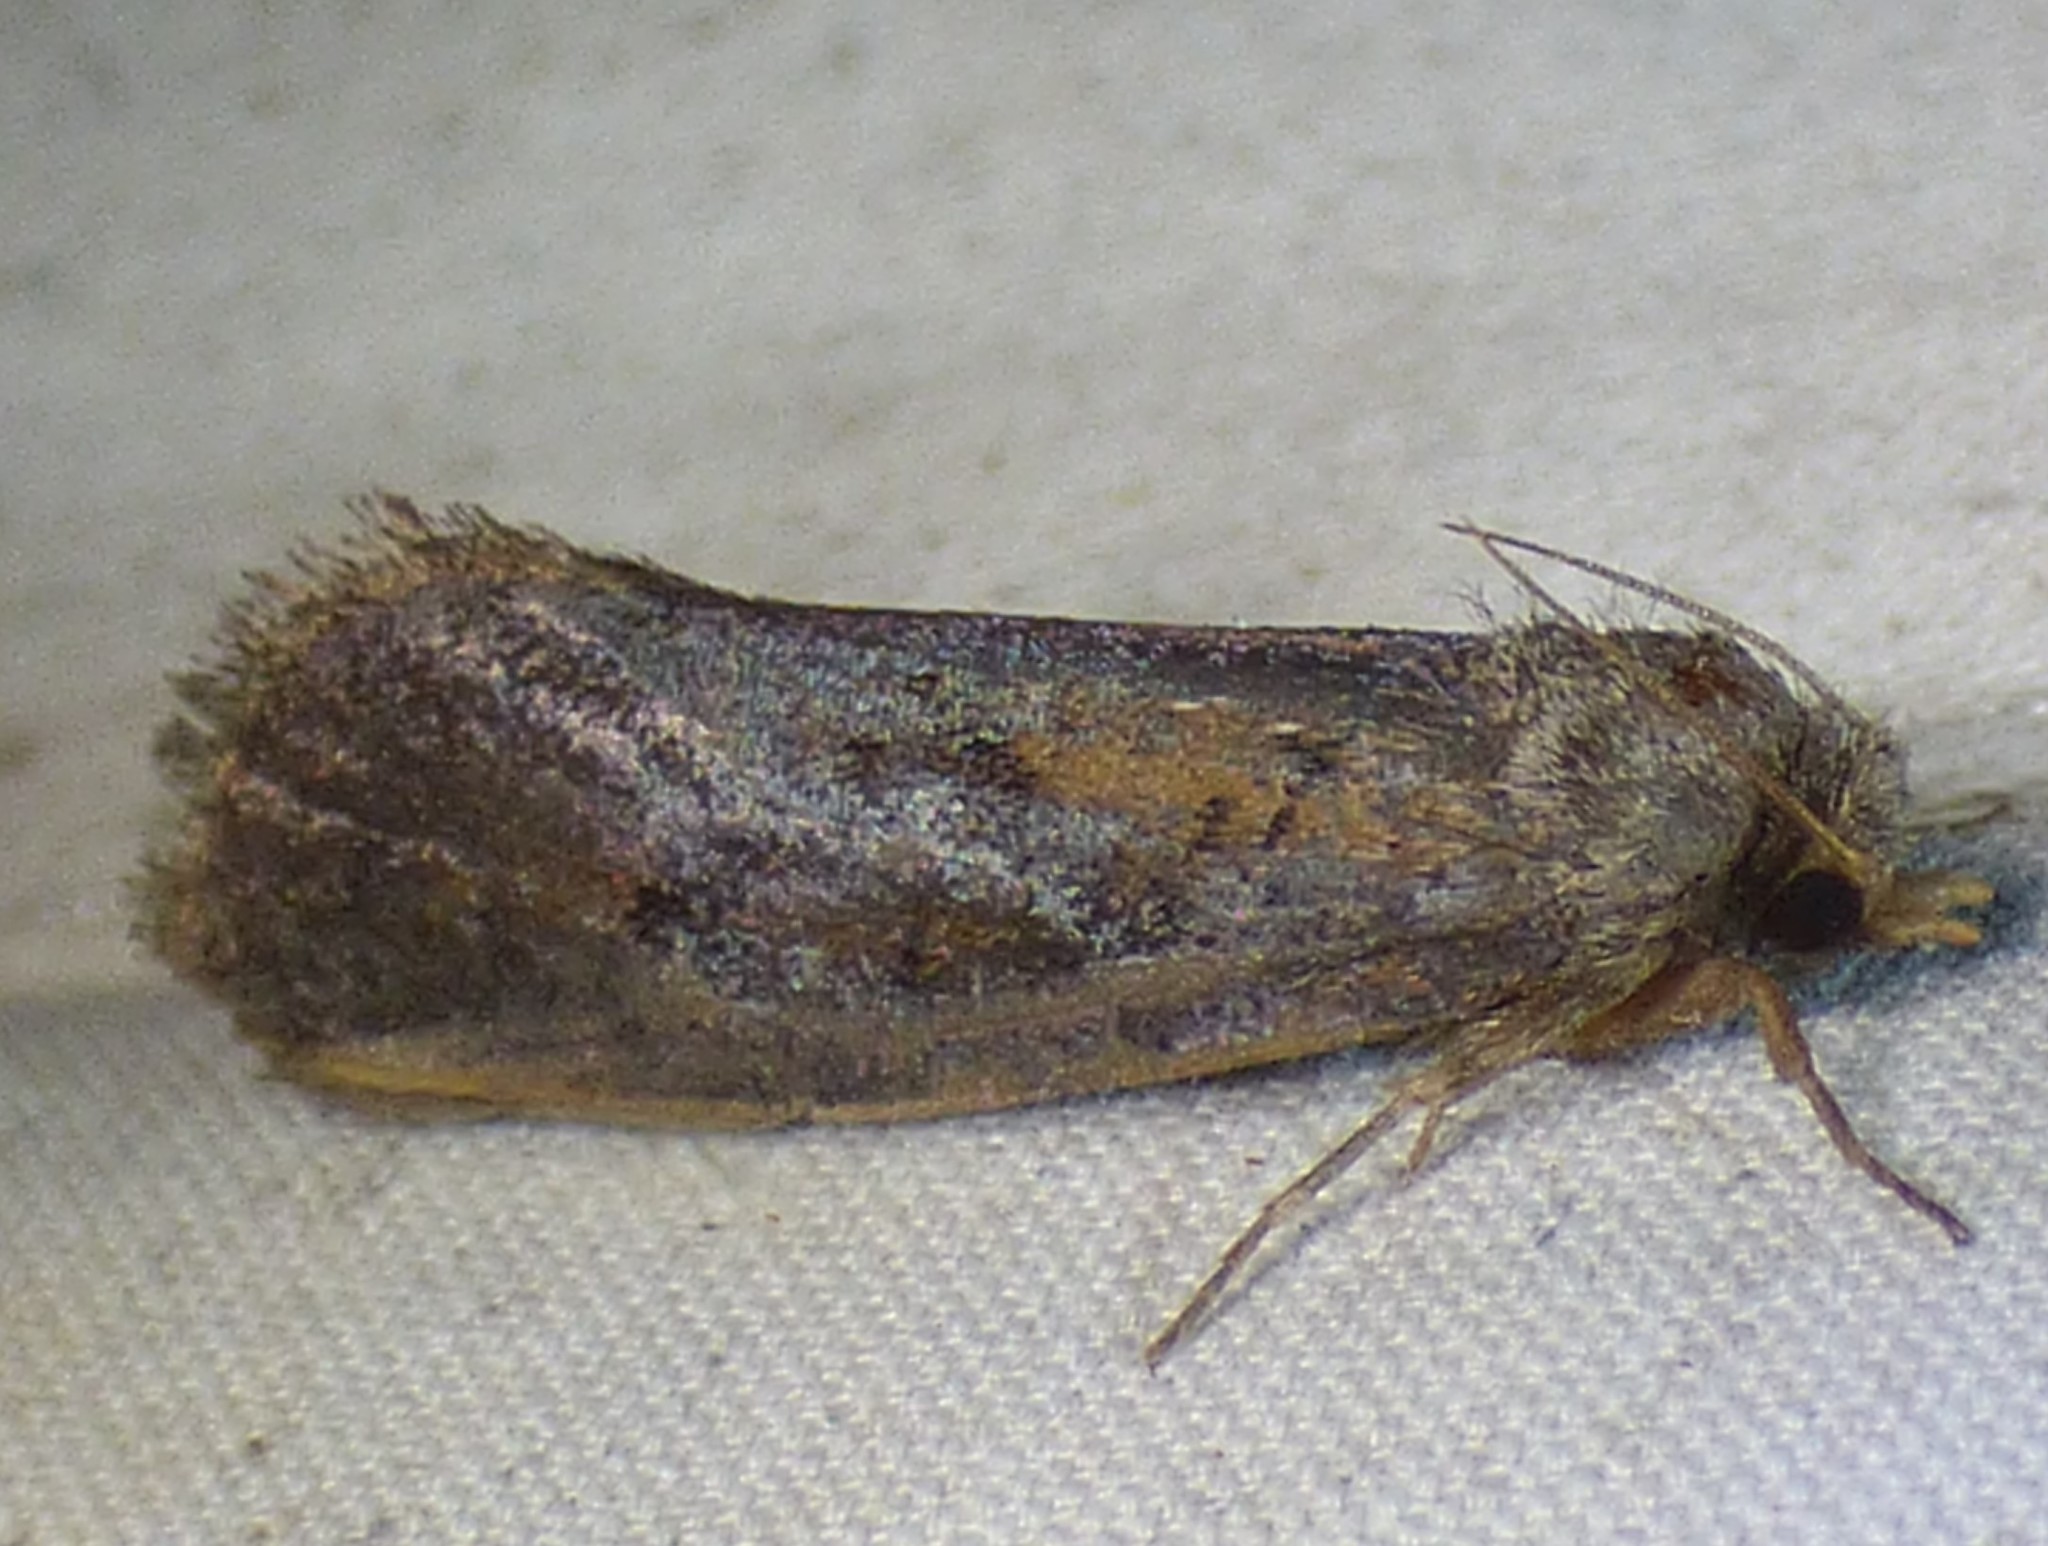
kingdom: Animalia
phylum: Arthropoda
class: Insecta
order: Lepidoptera
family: Tineidae
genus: Acrolophus
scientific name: Acrolophus popeanella
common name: Clemens' grass tubeworm moth
